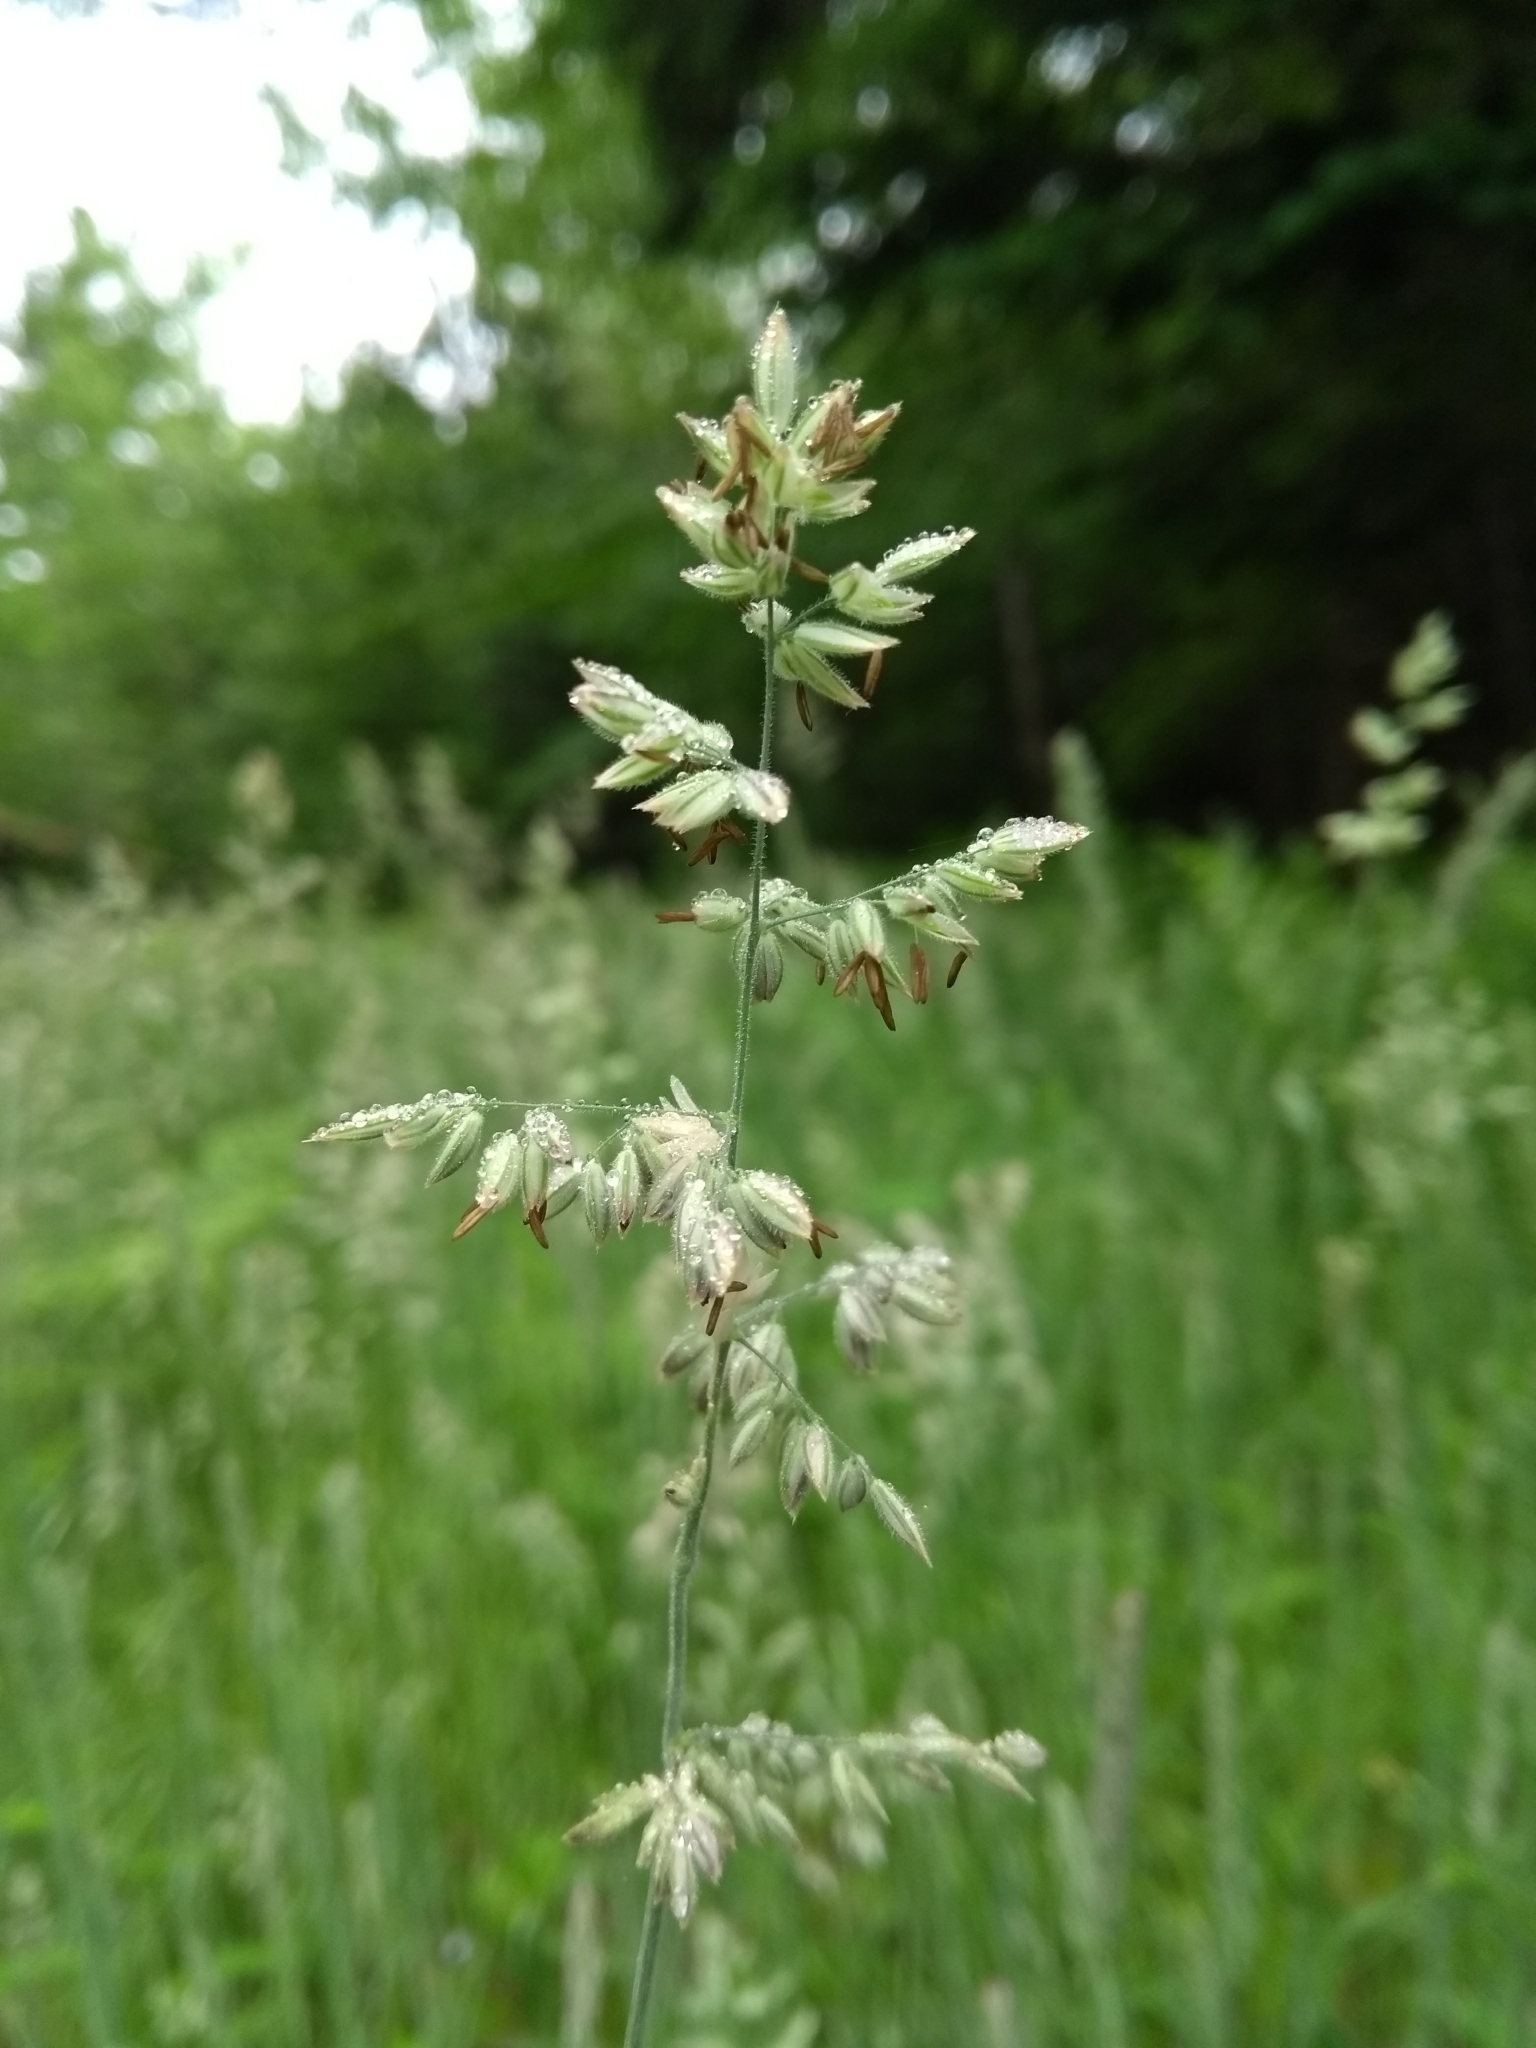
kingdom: Plantae
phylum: Tracheophyta
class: Liliopsida
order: Poales
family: Poaceae
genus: Holcus
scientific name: Holcus lanatus
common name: Yorkshire-fog
